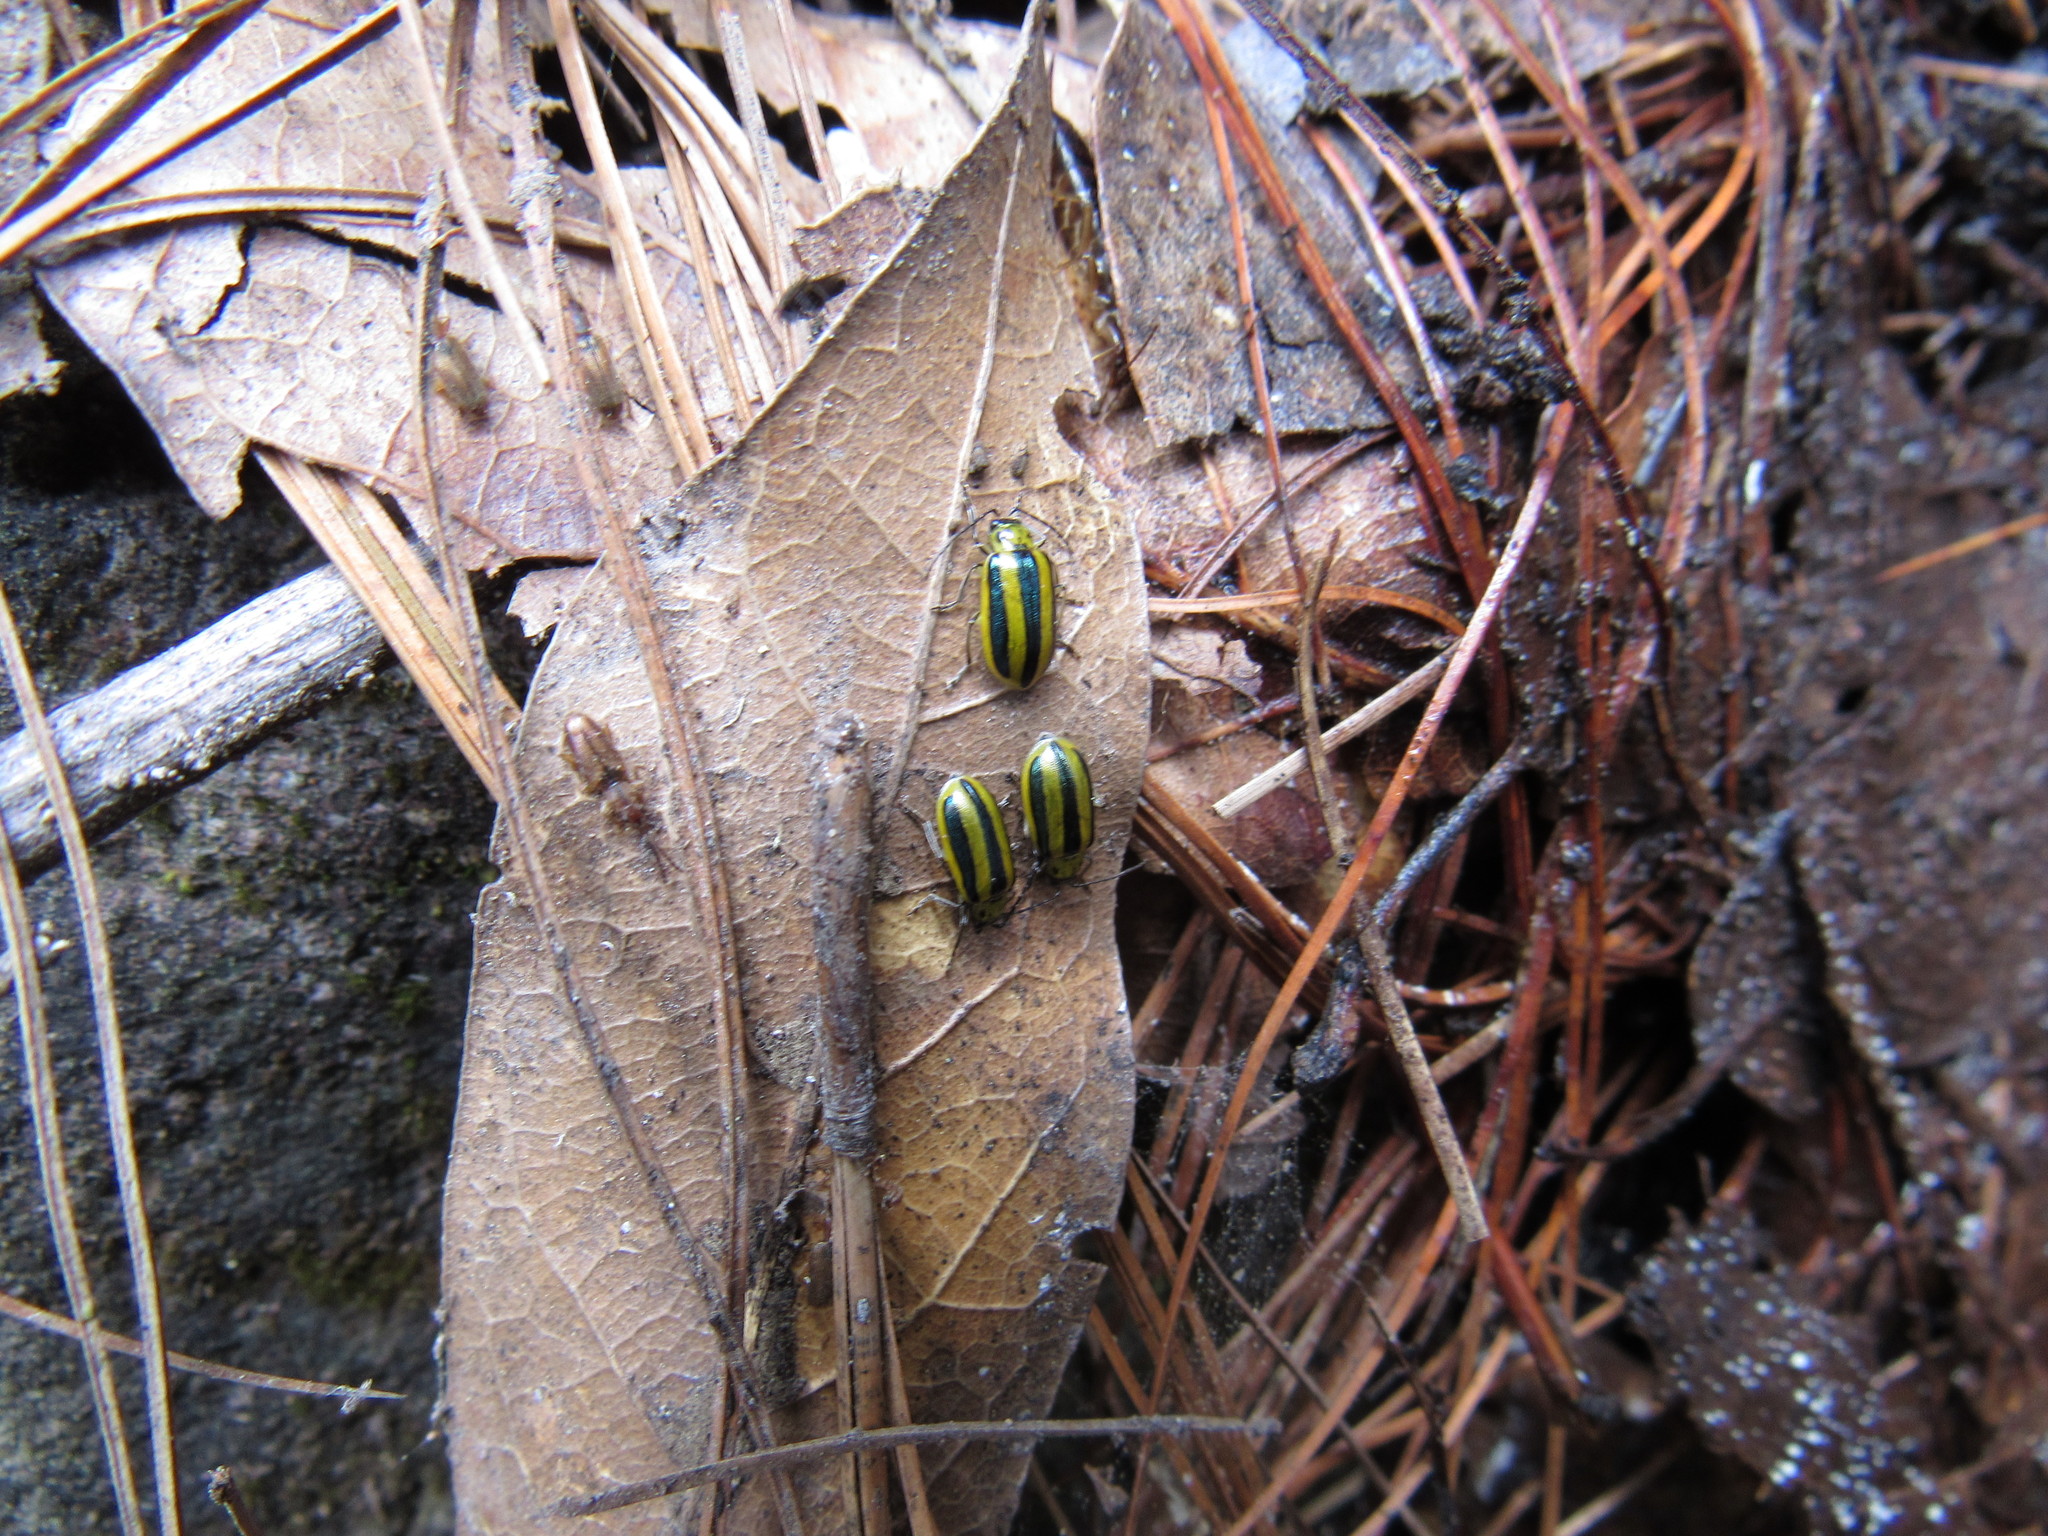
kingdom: Animalia
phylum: Arthropoda
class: Insecta
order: Coleoptera
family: Chrysomelidae
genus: Amphelasma
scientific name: Amphelasma cavum
